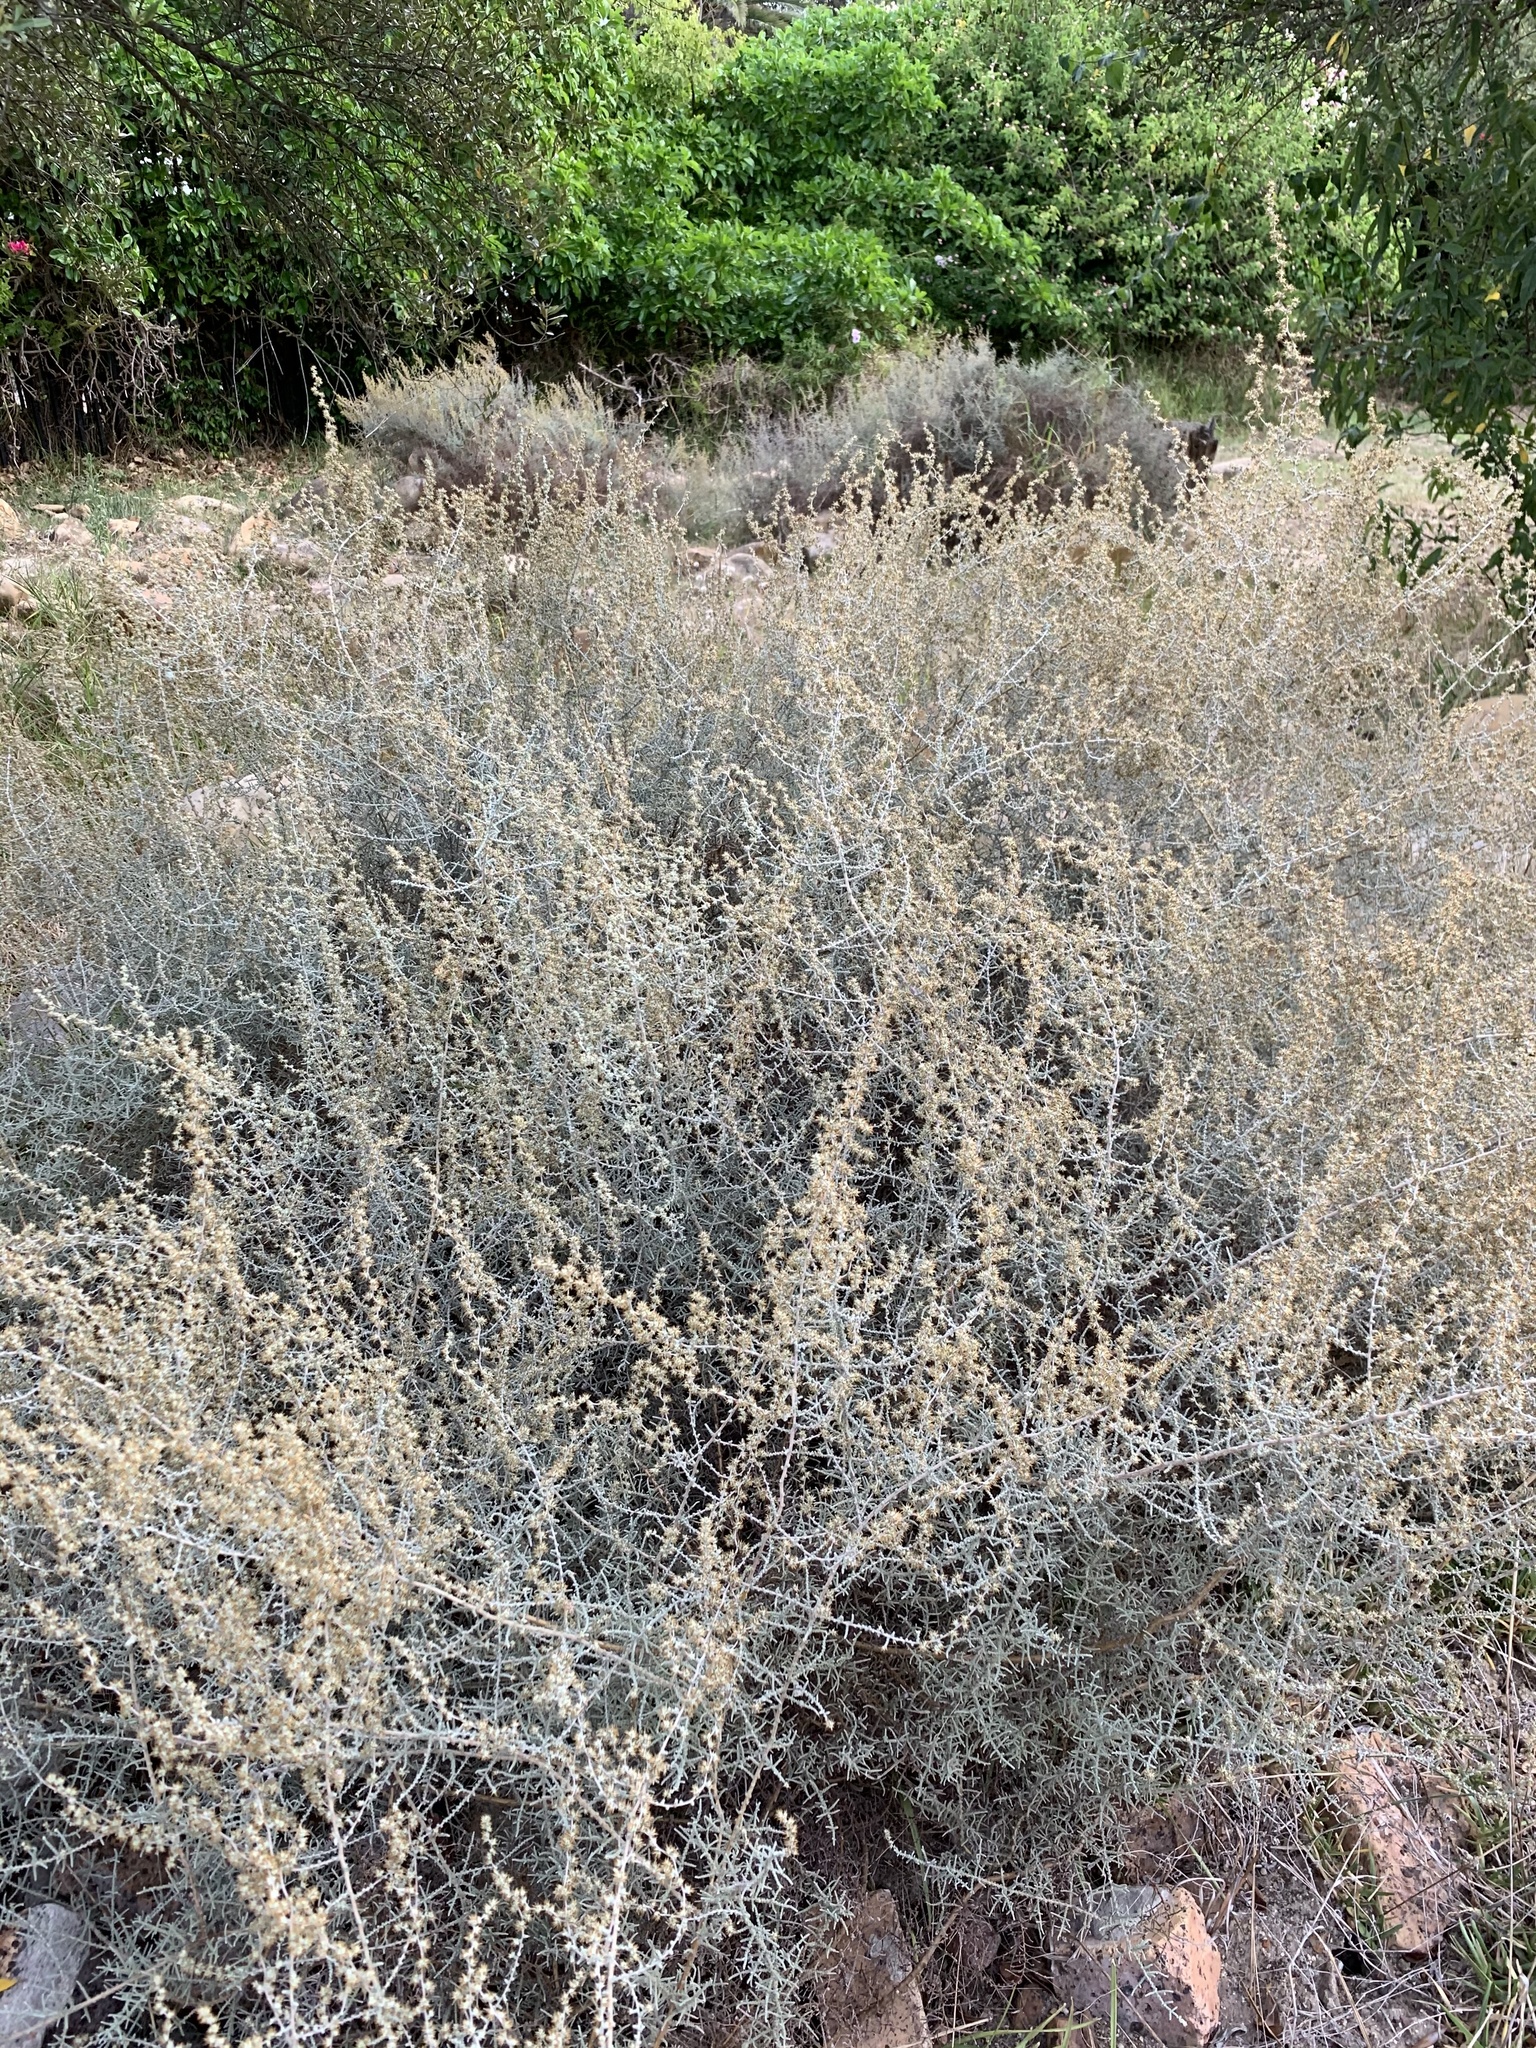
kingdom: Plantae
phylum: Tracheophyta
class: Magnoliopsida
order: Asterales
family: Asteraceae
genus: Seriphium
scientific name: Seriphium plumosum
